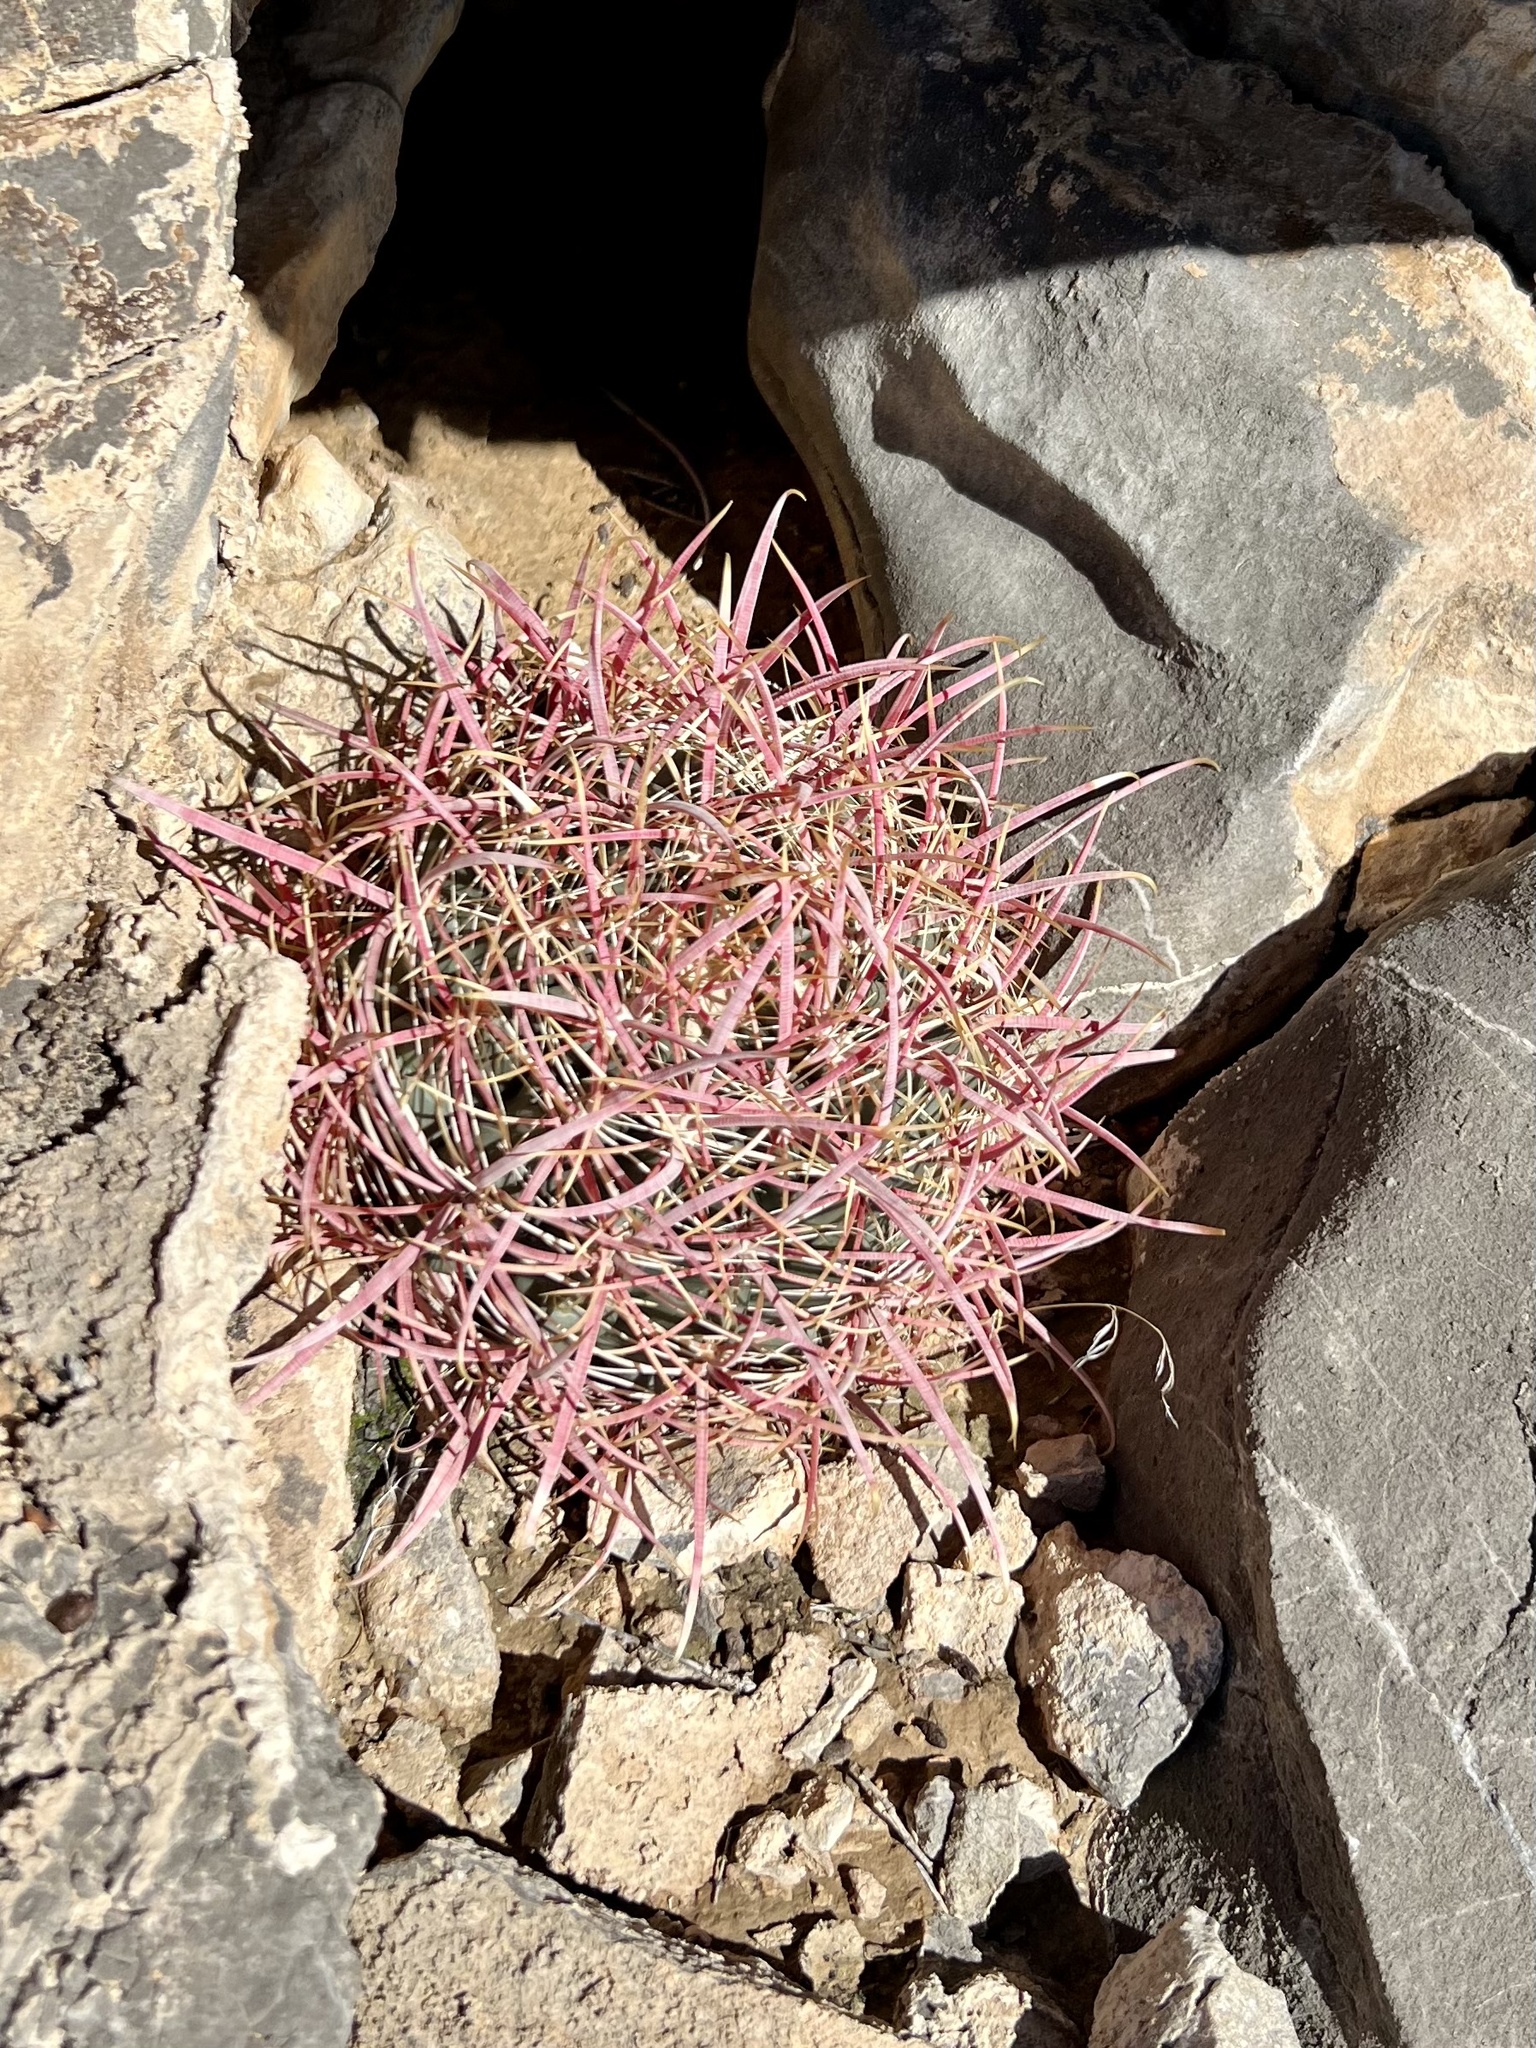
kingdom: Plantae
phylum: Tracheophyta
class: Magnoliopsida
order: Caryophyllales
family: Cactaceae
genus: Ferocactus
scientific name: Ferocactus cylindraceus
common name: California barrel cactus
